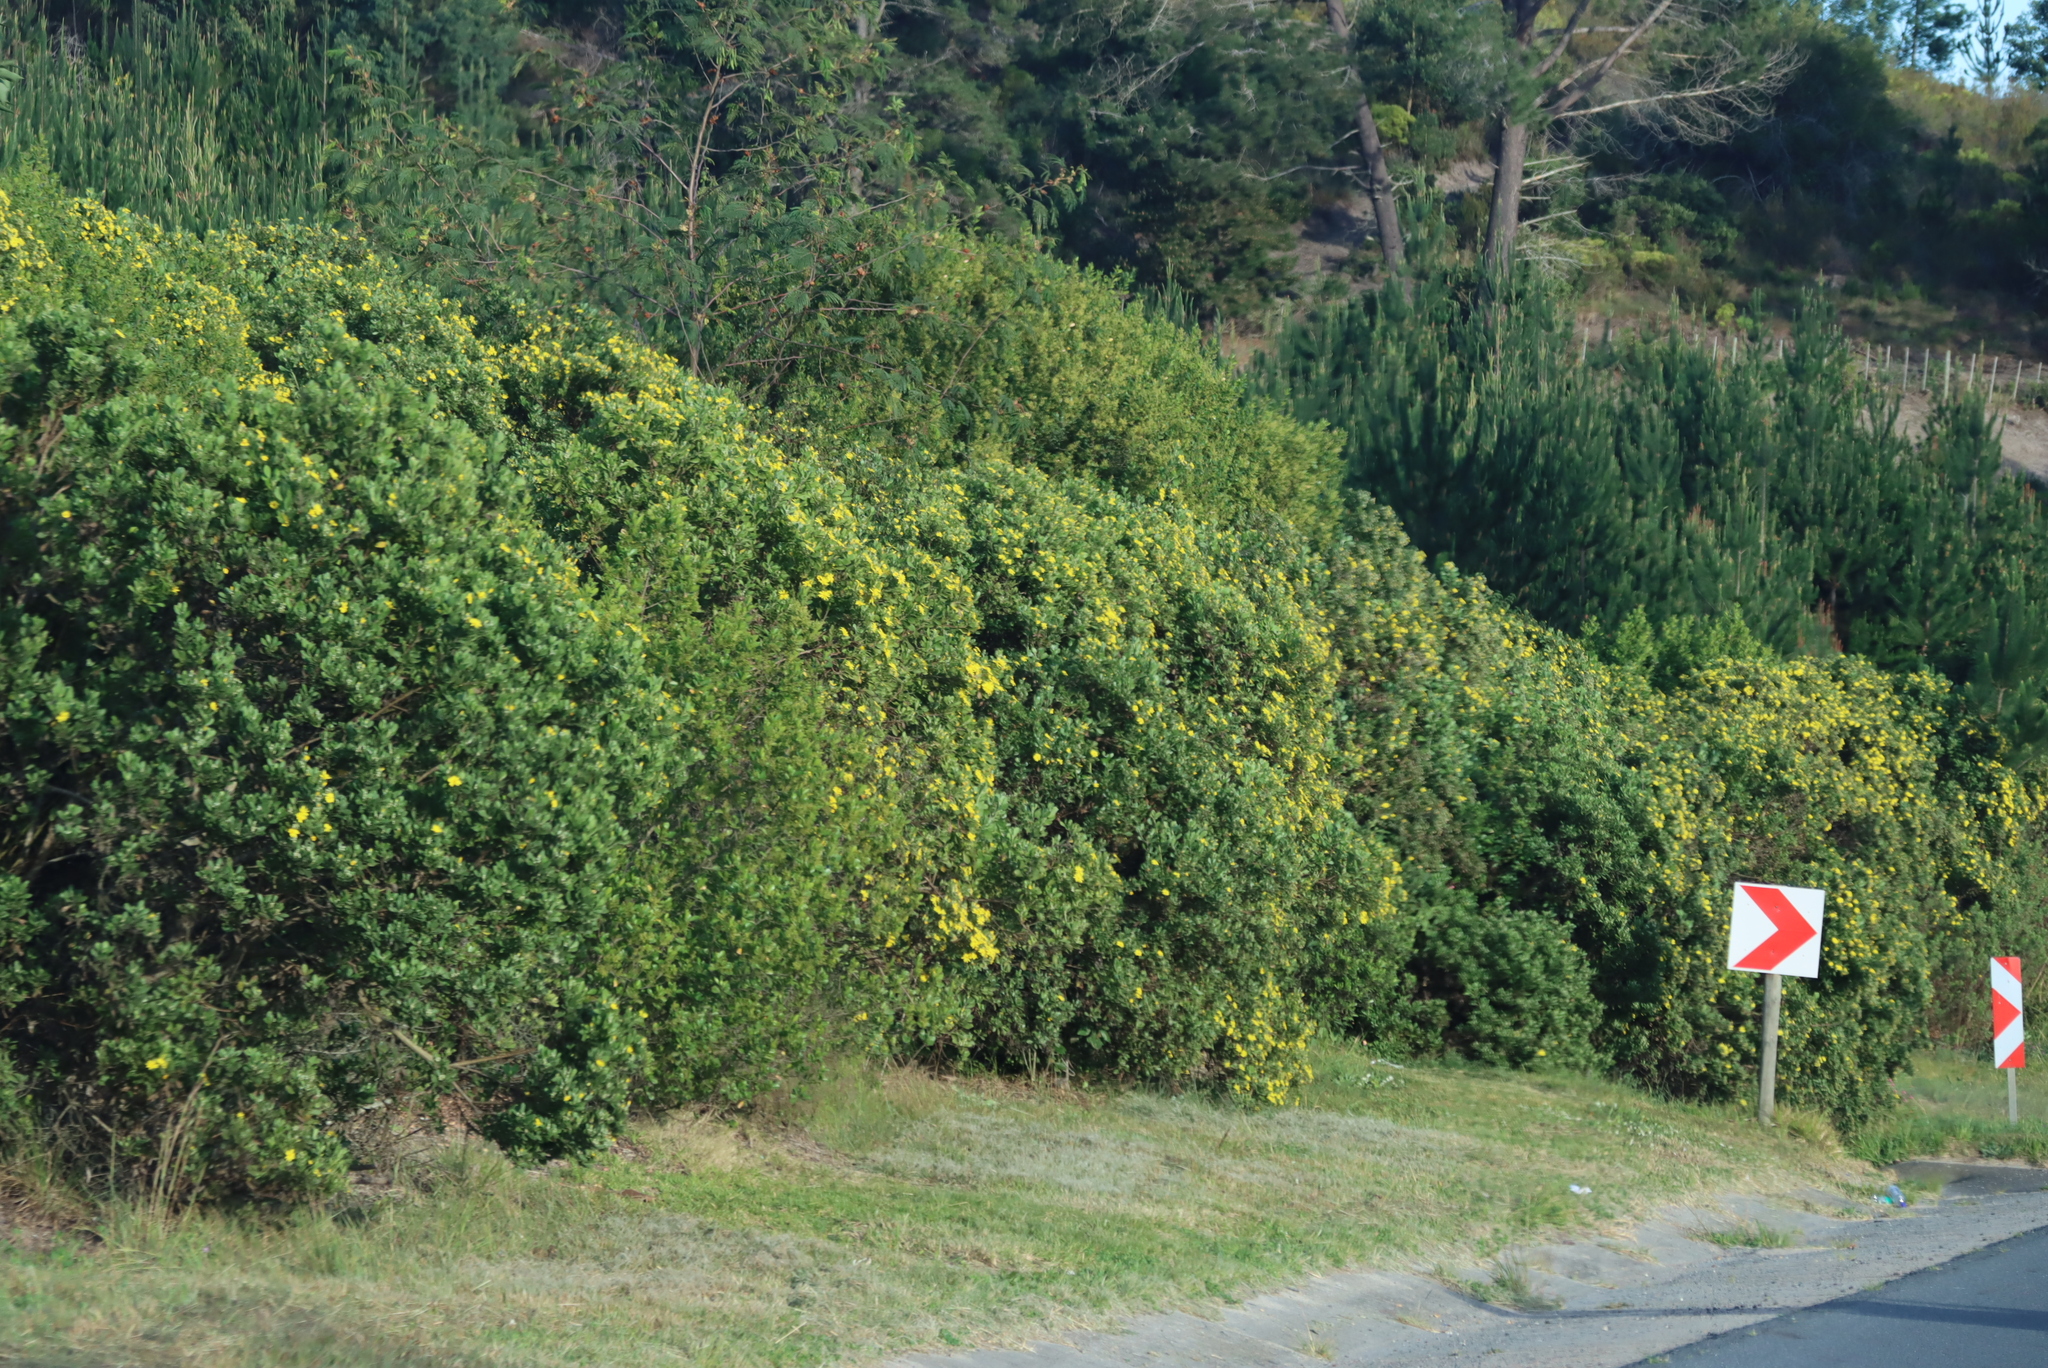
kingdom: Plantae
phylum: Tracheophyta
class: Magnoliopsida
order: Asterales
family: Asteraceae
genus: Osteospermum
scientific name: Osteospermum moniliferum
